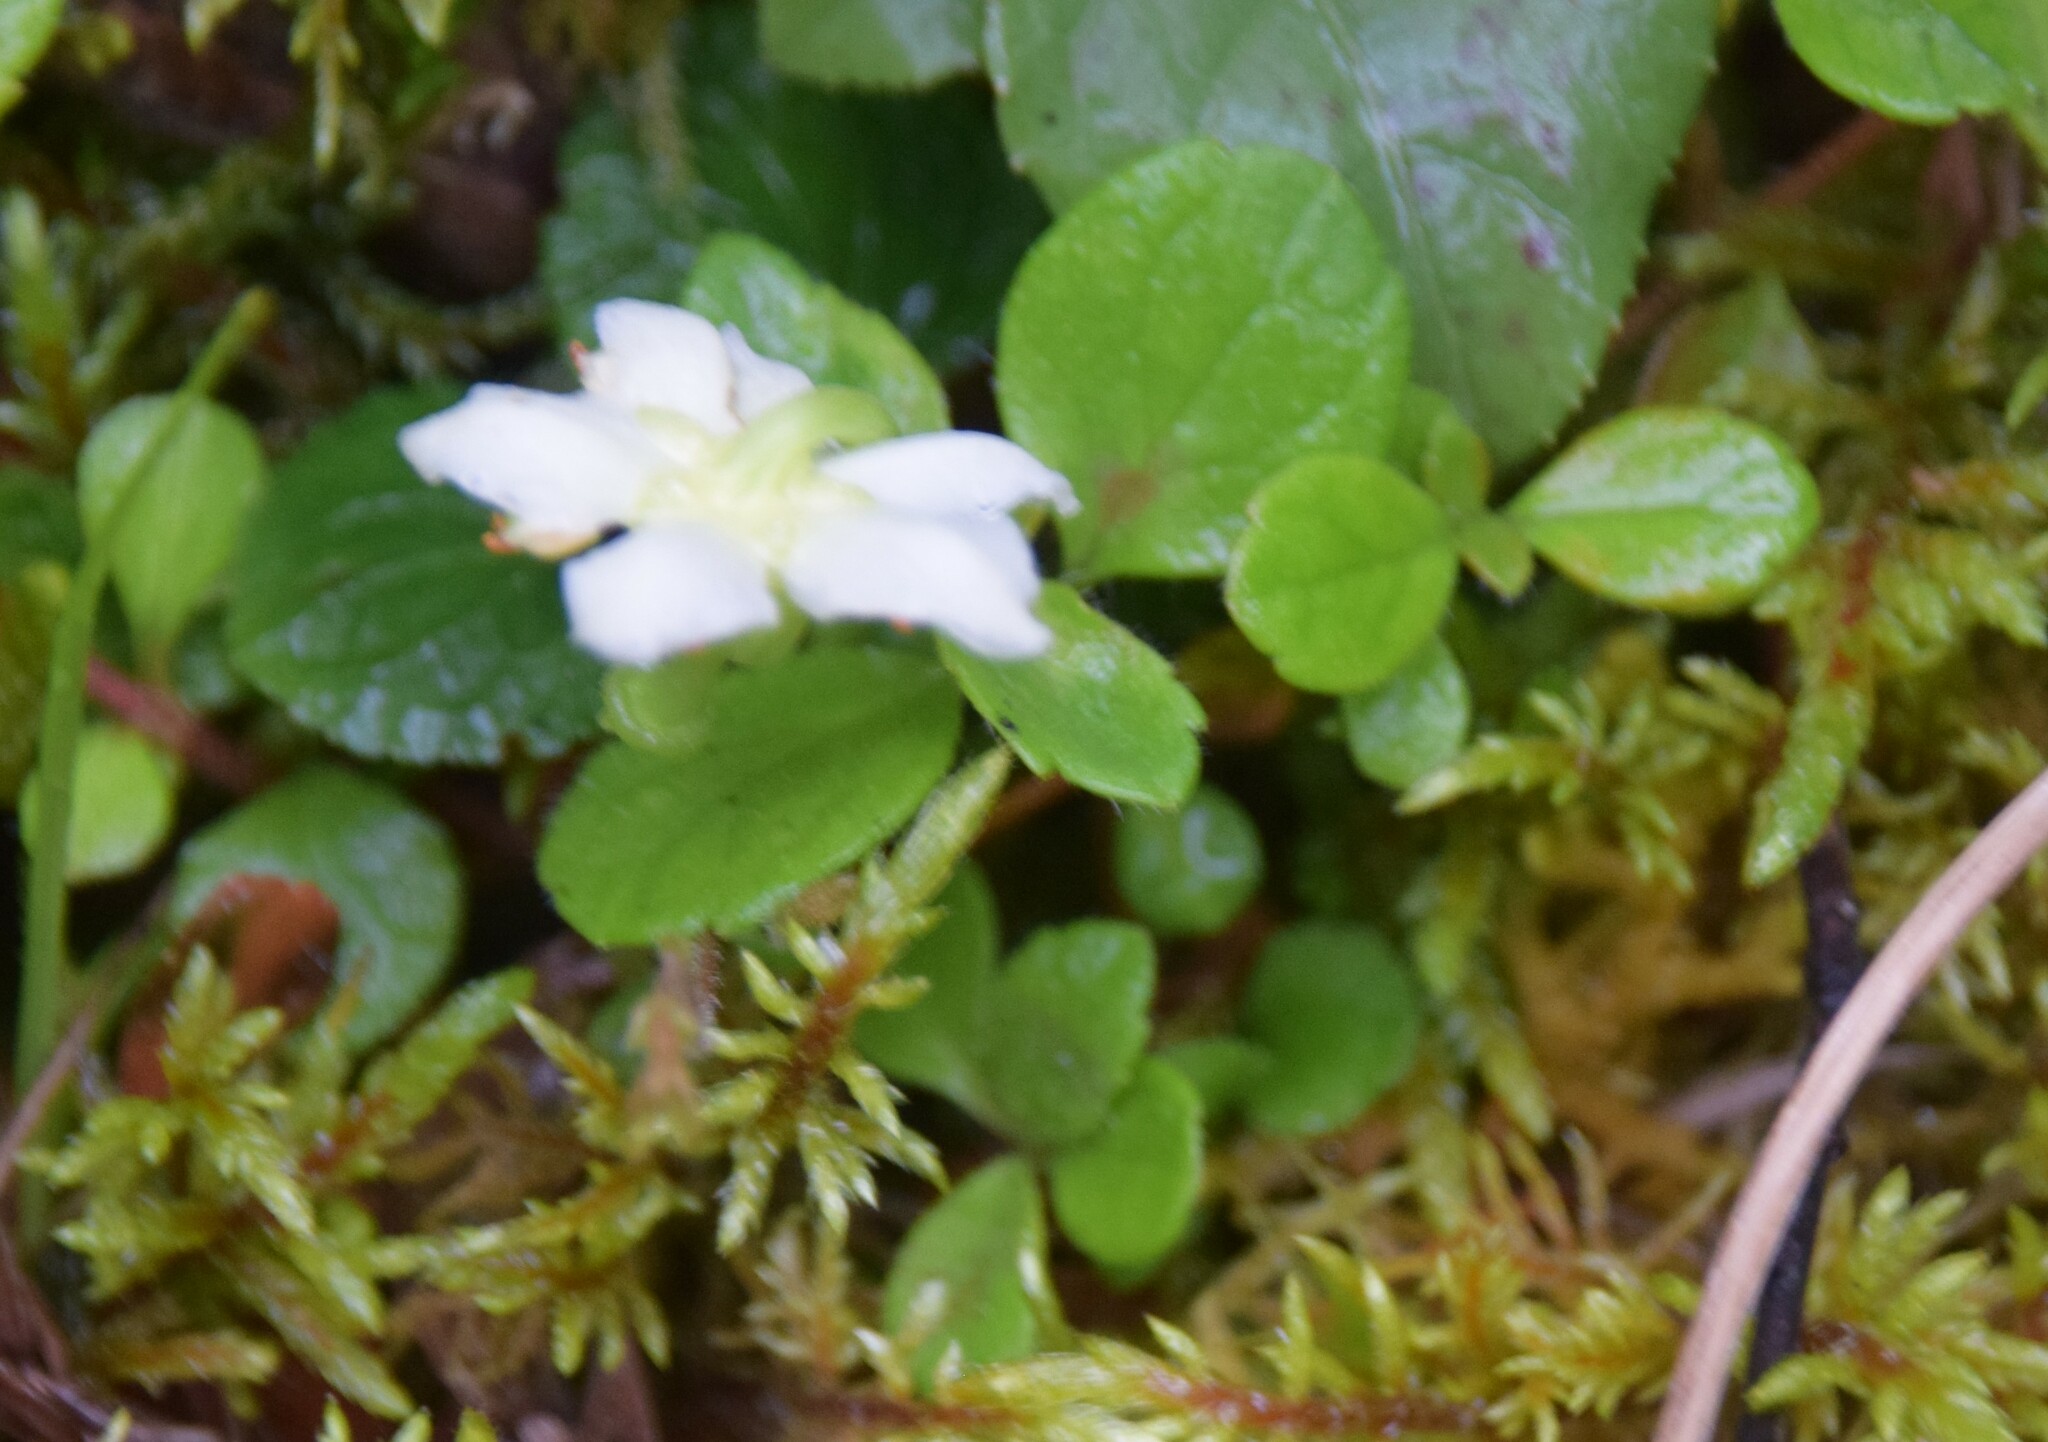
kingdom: Plantae
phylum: Tracheophyta
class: Magnoliopsida
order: Ericales
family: Ericaceae
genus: Moneses
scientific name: Moneses uniflora
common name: One-flowered wintergreen
